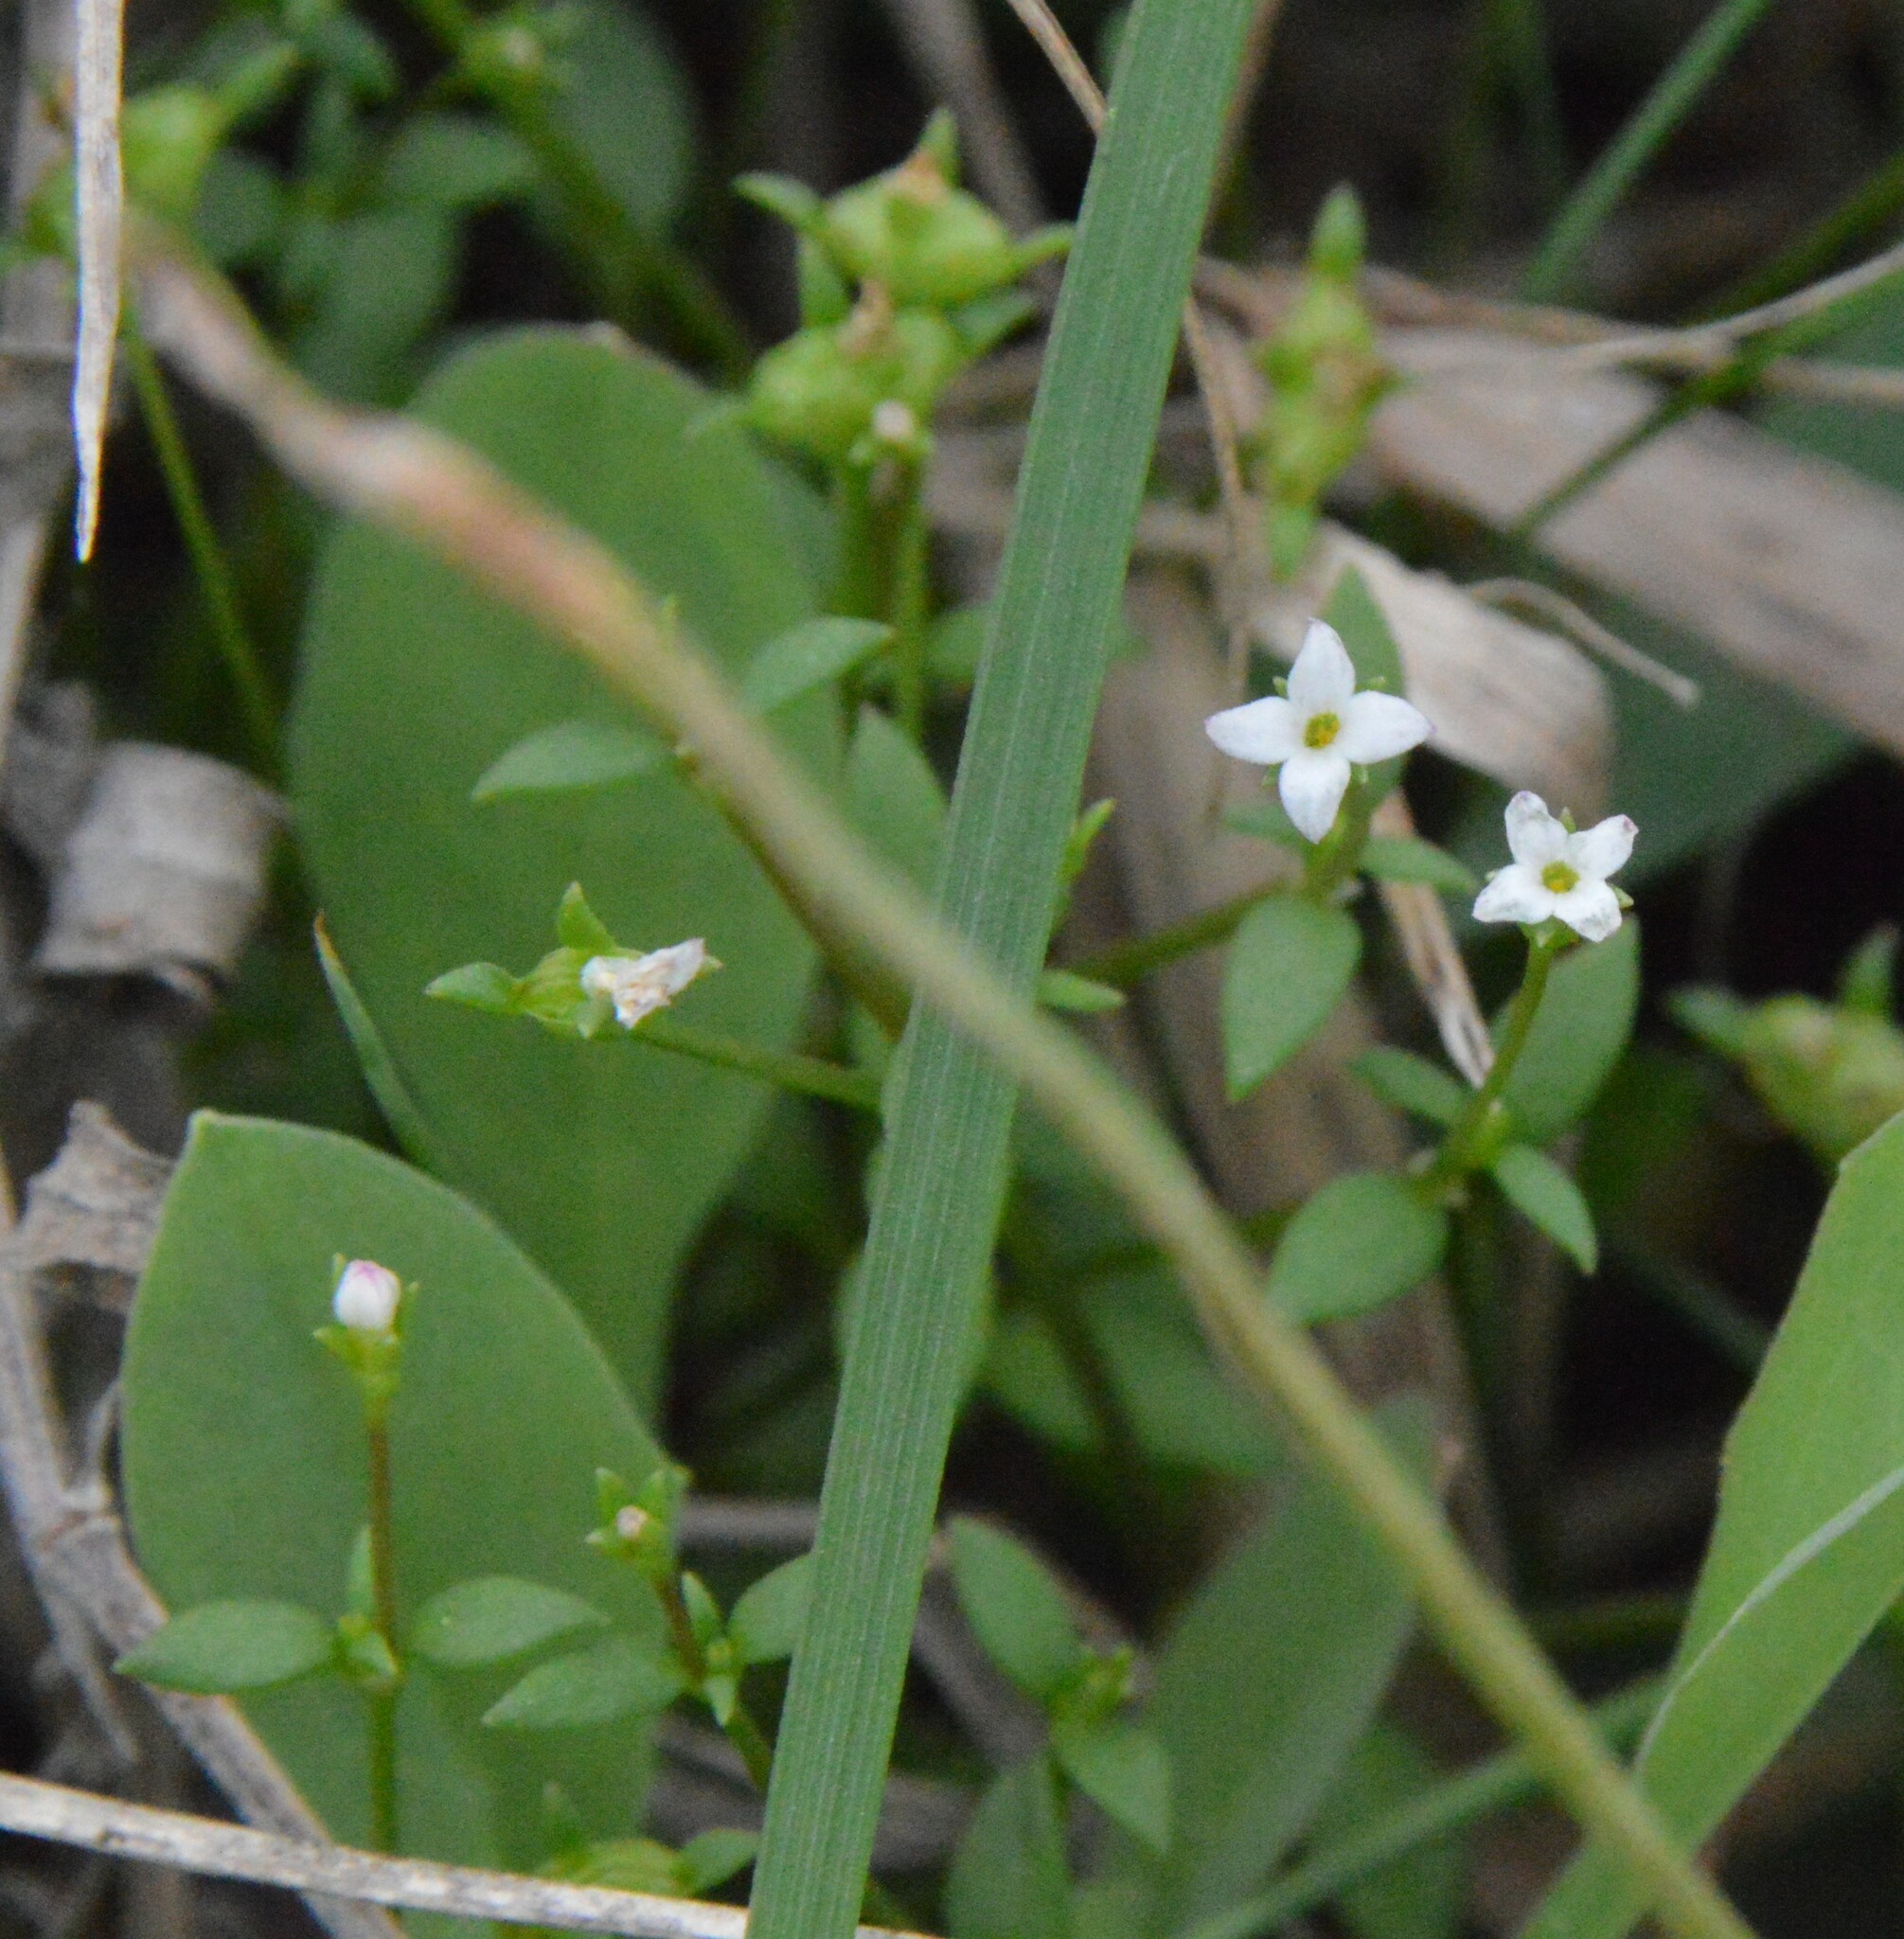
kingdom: Plantae
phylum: Tracheophyta
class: Magnoliopsida
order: Gentianales
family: Rubiaceae
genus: Houstonia
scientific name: Houstonia micrantha
